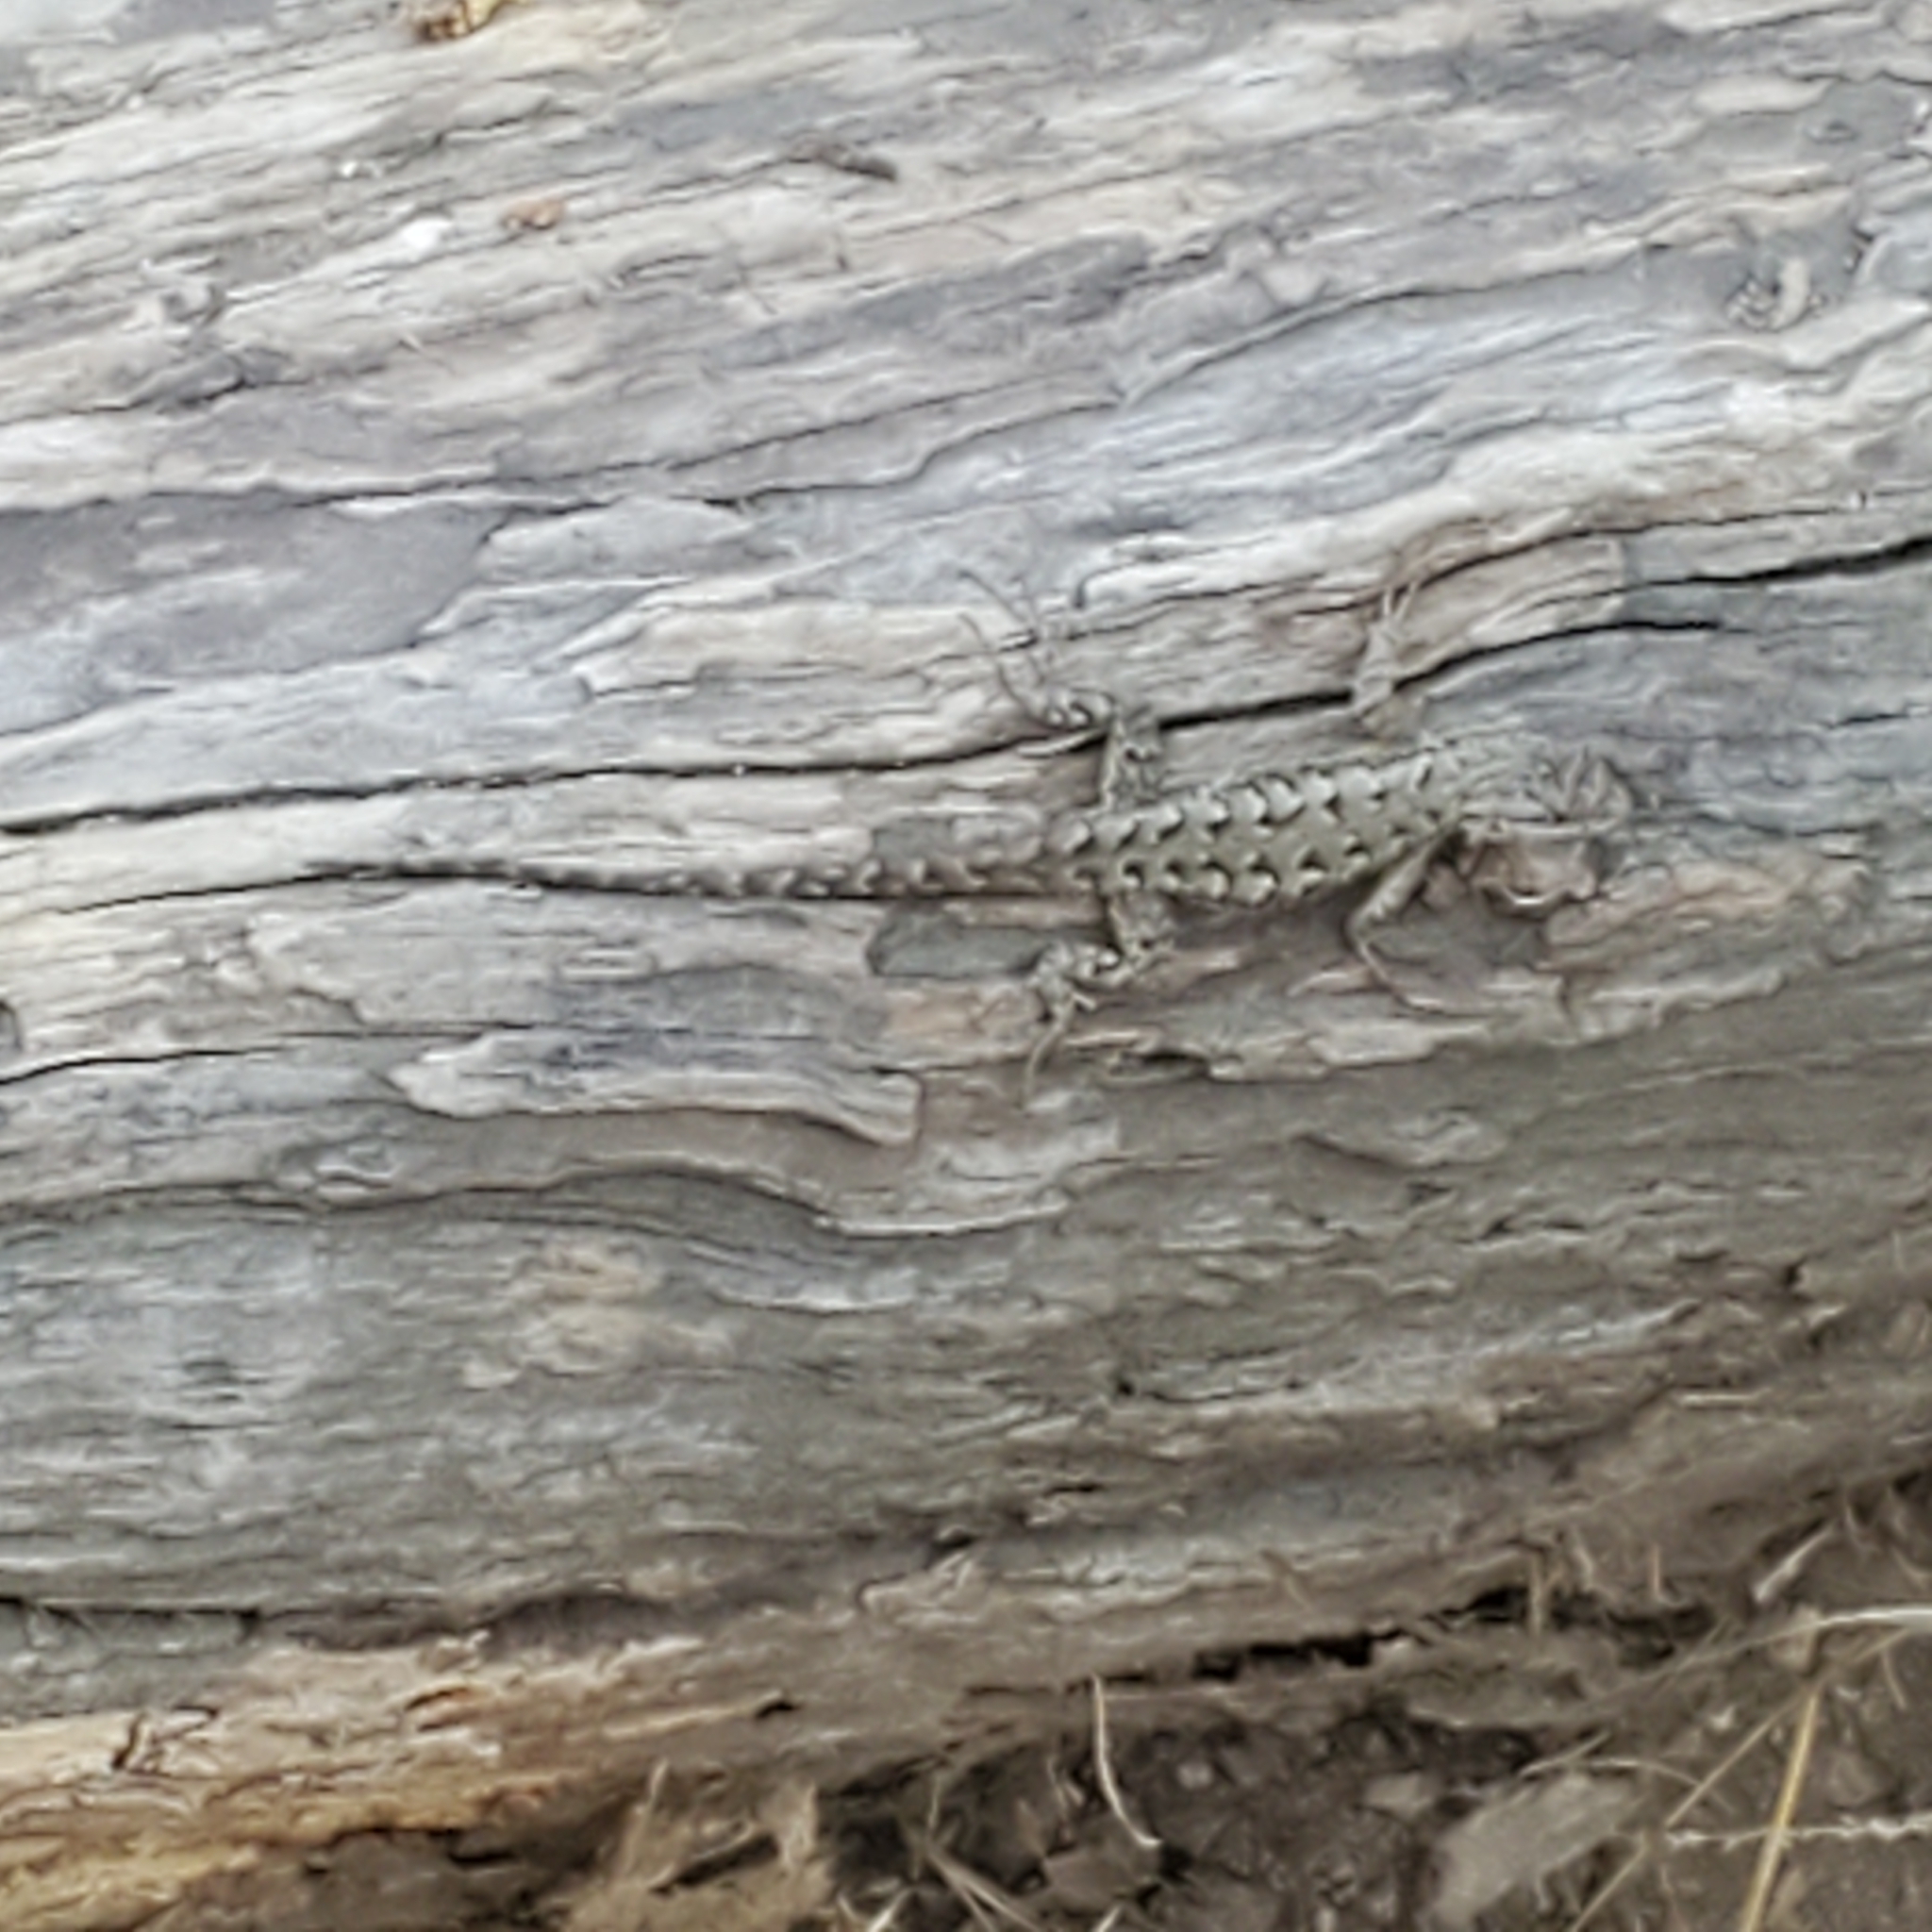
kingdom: Animalia
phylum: Chordata
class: Squamata
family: Phrynosomatidae
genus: Sceloporus
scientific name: Sceloporus occidentalis
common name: Western fence lizard
